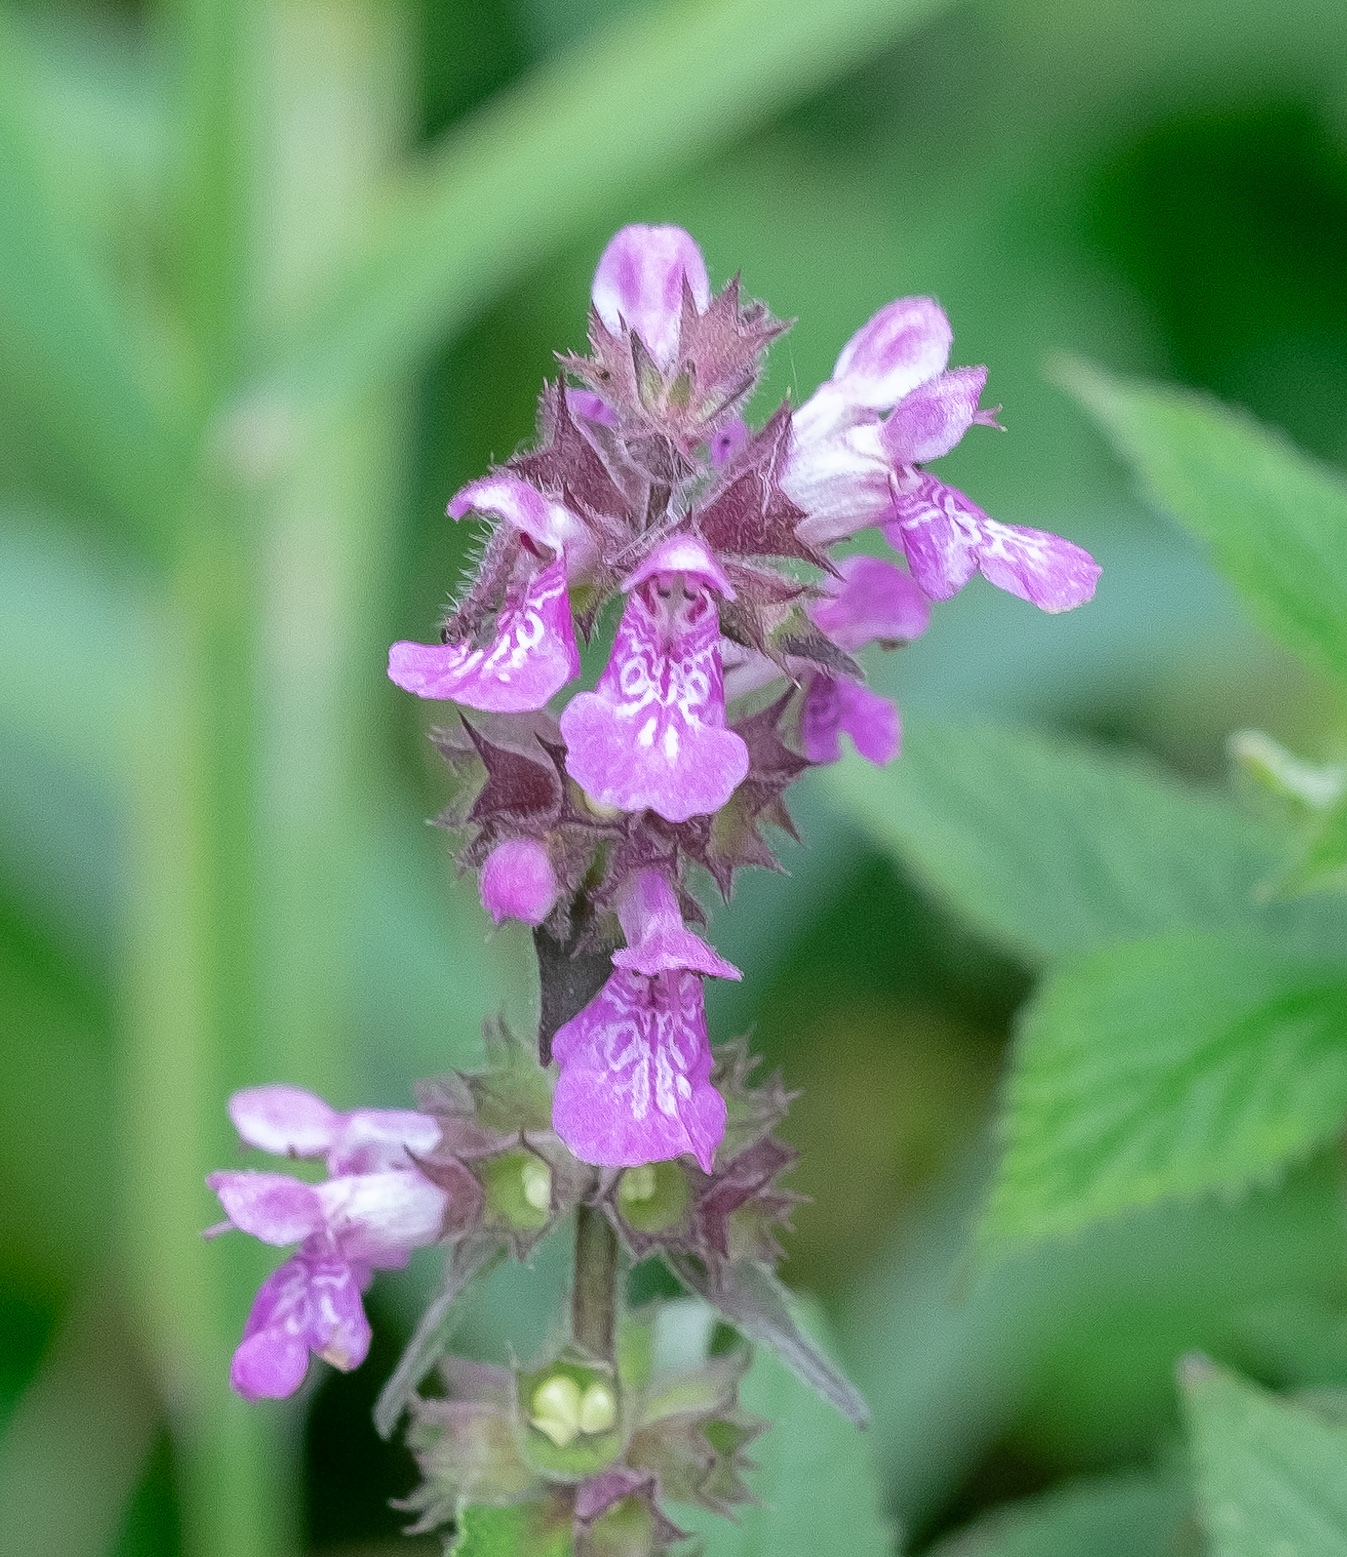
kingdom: Plantae
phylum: Tracheophyta
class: Magnoliopsida
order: Lamiales
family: Lamiaceae
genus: Stachys
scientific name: Stachys palustris
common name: Marsh woundwort
